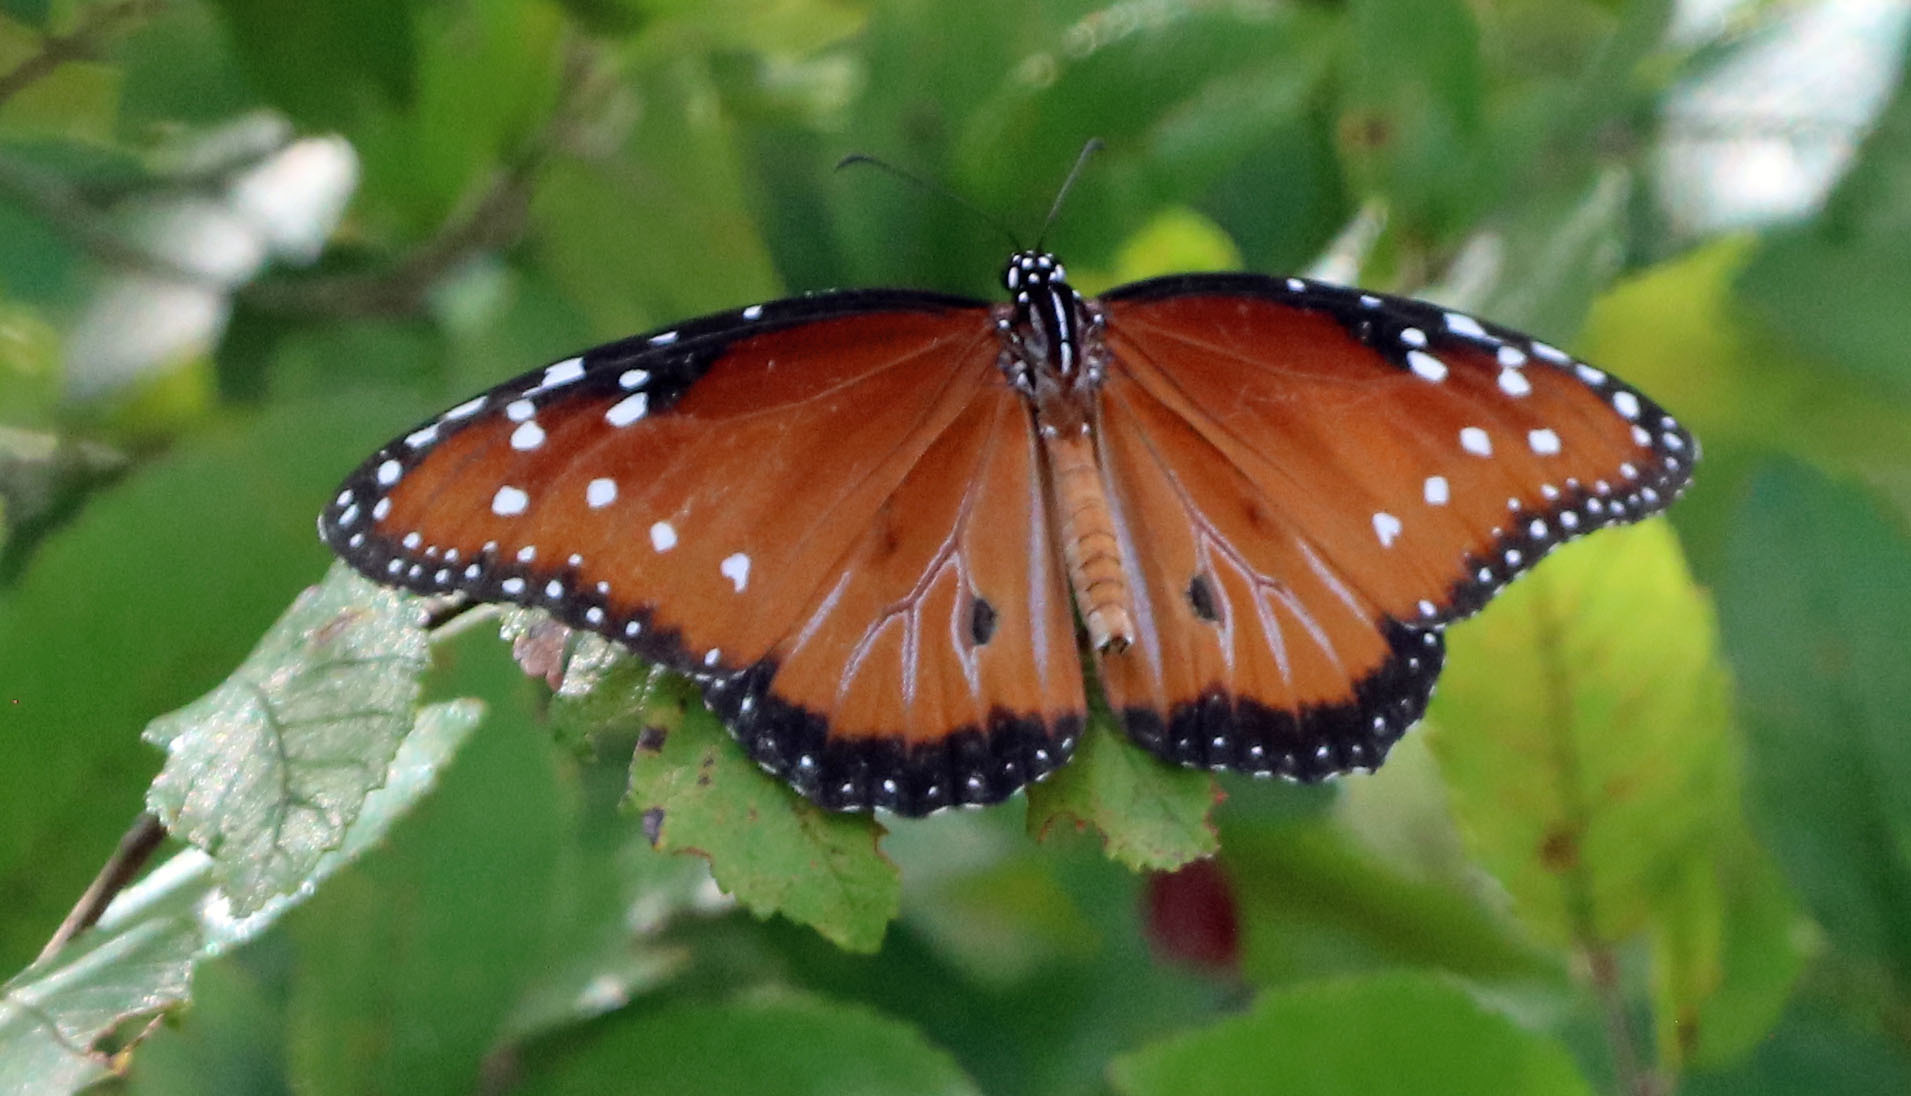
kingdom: Animalia
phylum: Arthropoda
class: Insecta
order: Lepidoptera
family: Nymphalidae
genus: Danaus
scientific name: Danaus gilippus
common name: Queen
